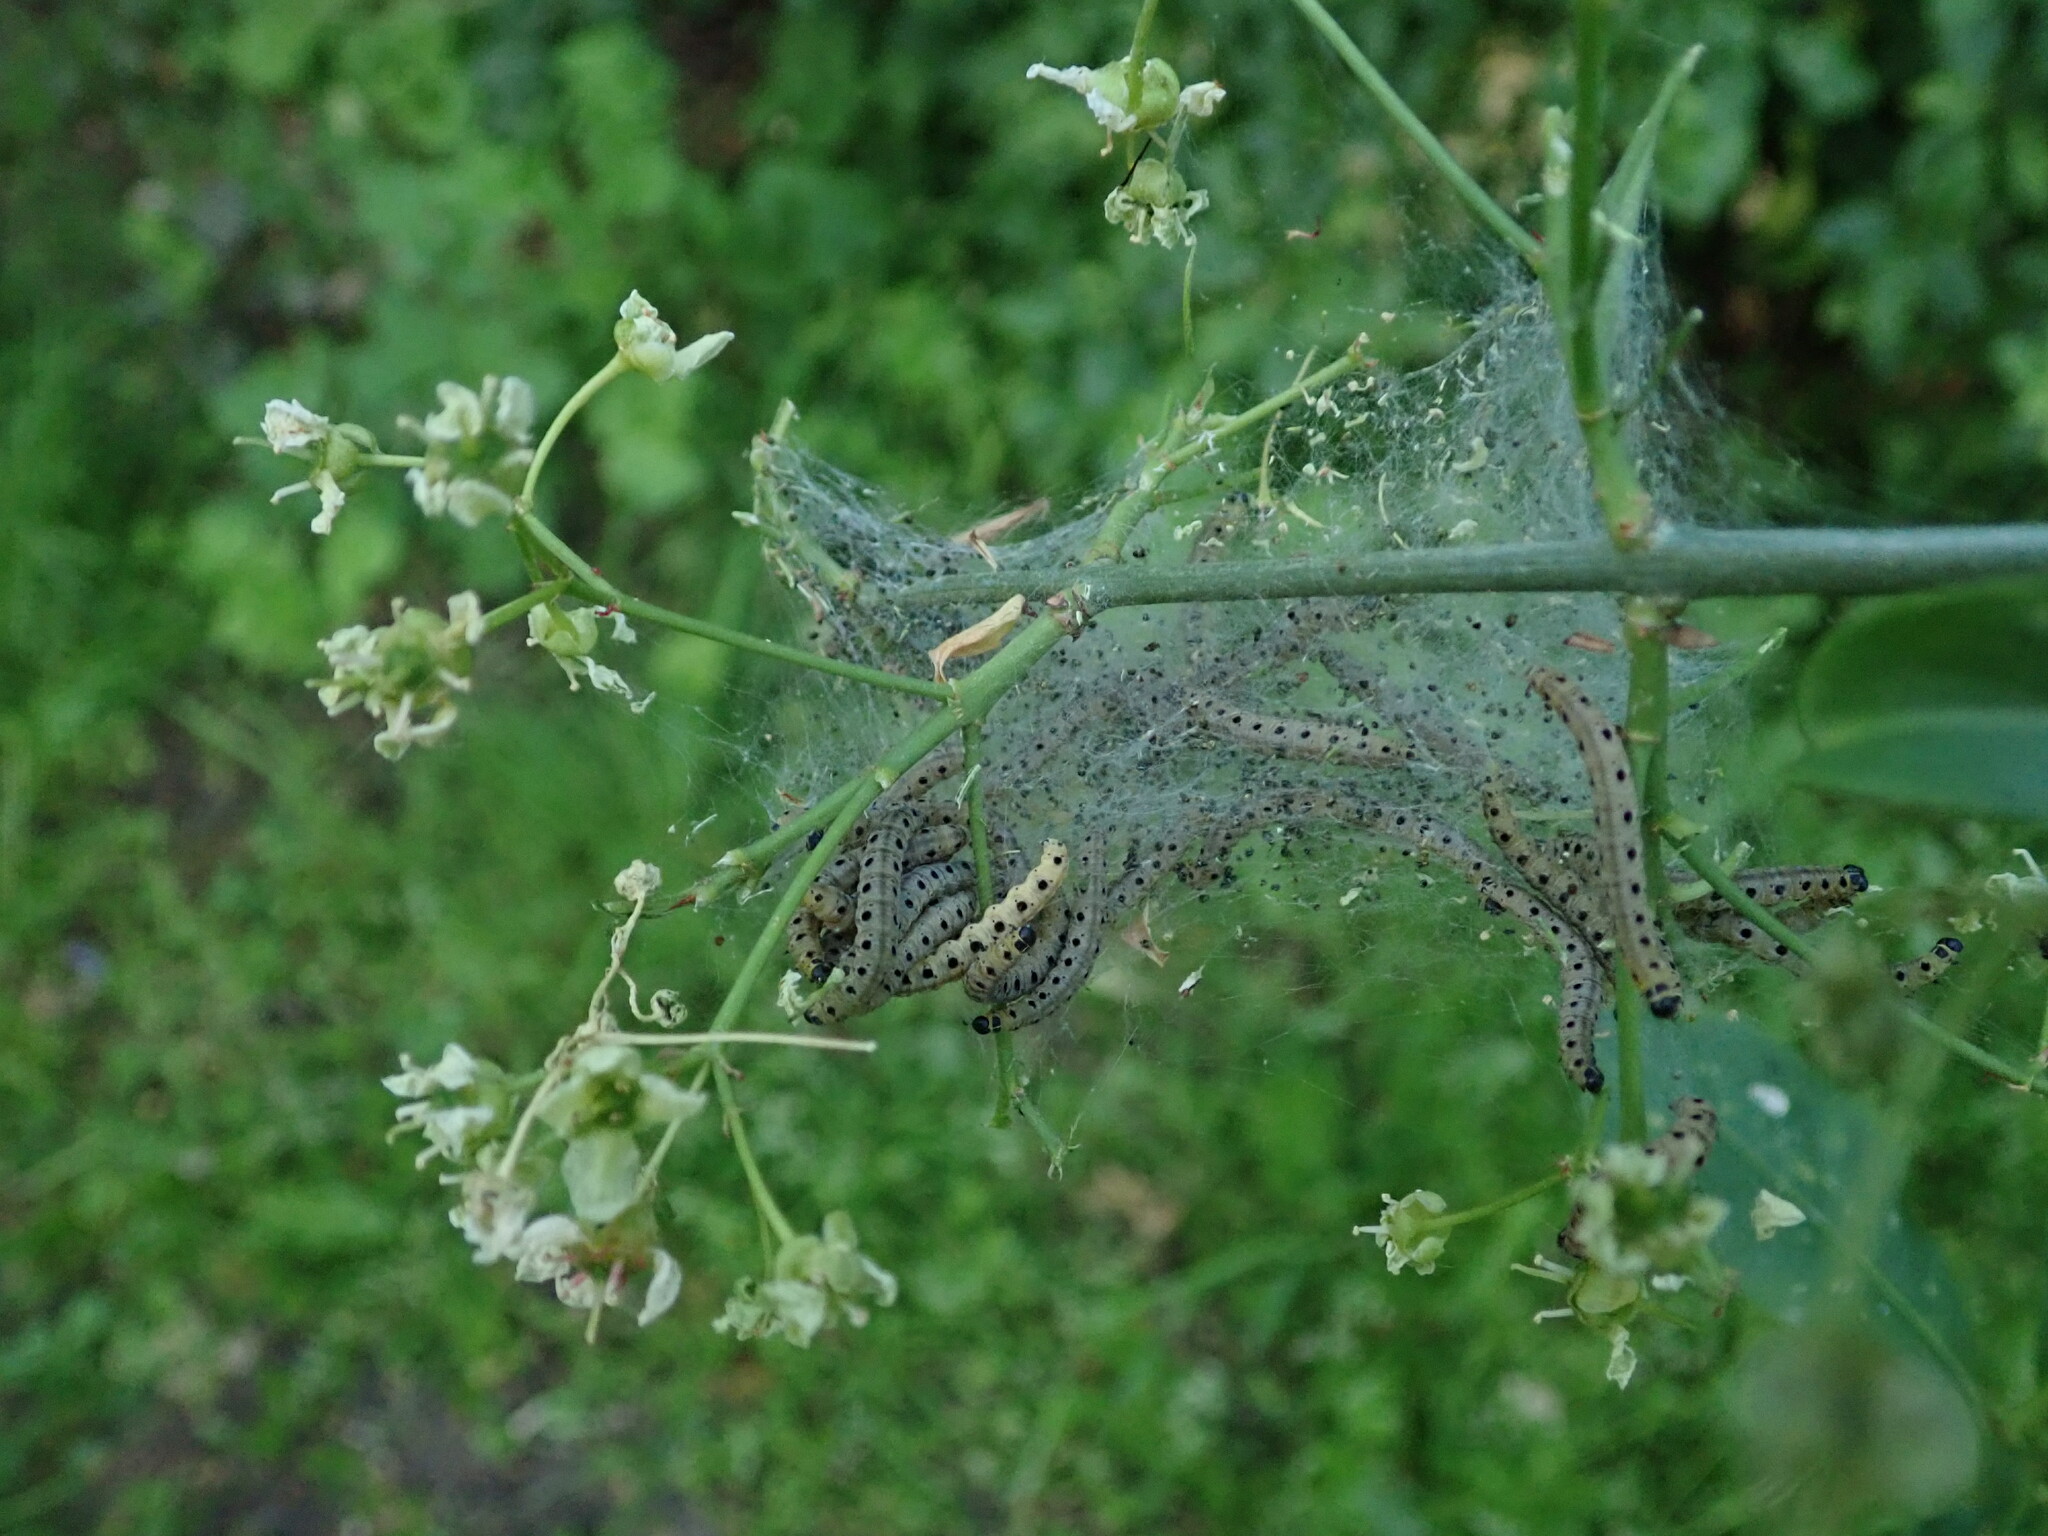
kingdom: Animalia
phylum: Arthropoda
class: Insecta
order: Lepidoptera
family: Yponomeutidae
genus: Yponomeuta
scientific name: Yponomeuta cagnagellus
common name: Spindle ermine
